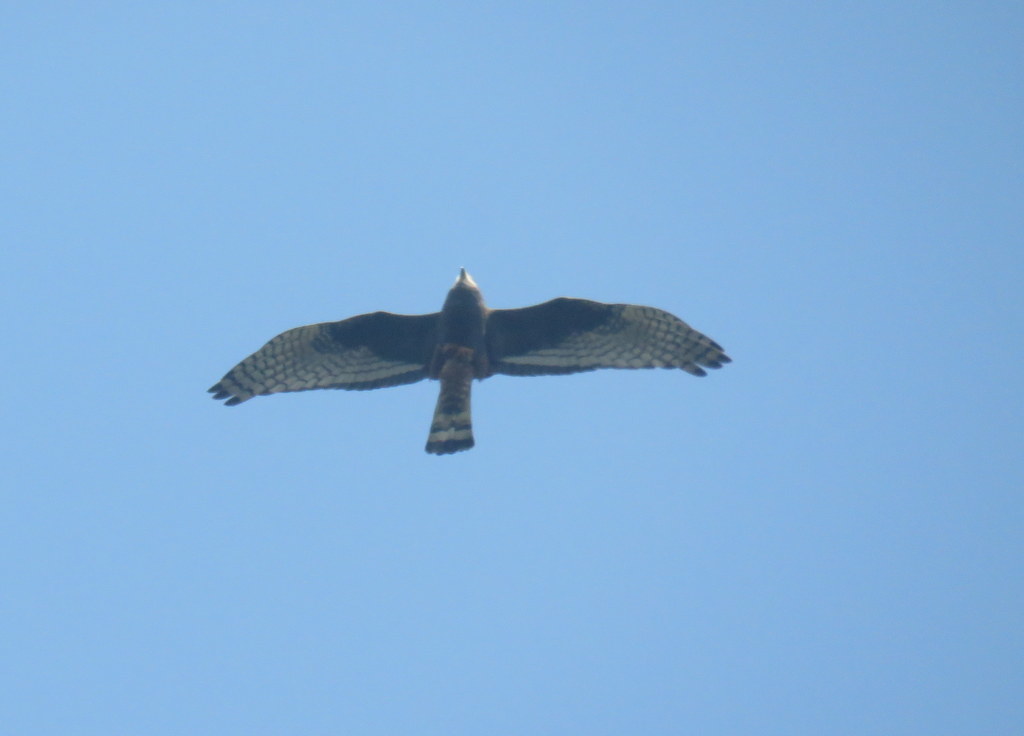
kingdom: Animalia
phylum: Chordata
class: Aves
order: Accipitriformes
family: Accipitridae
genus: Circus
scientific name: Circus buffoni
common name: Long-winged harrier
